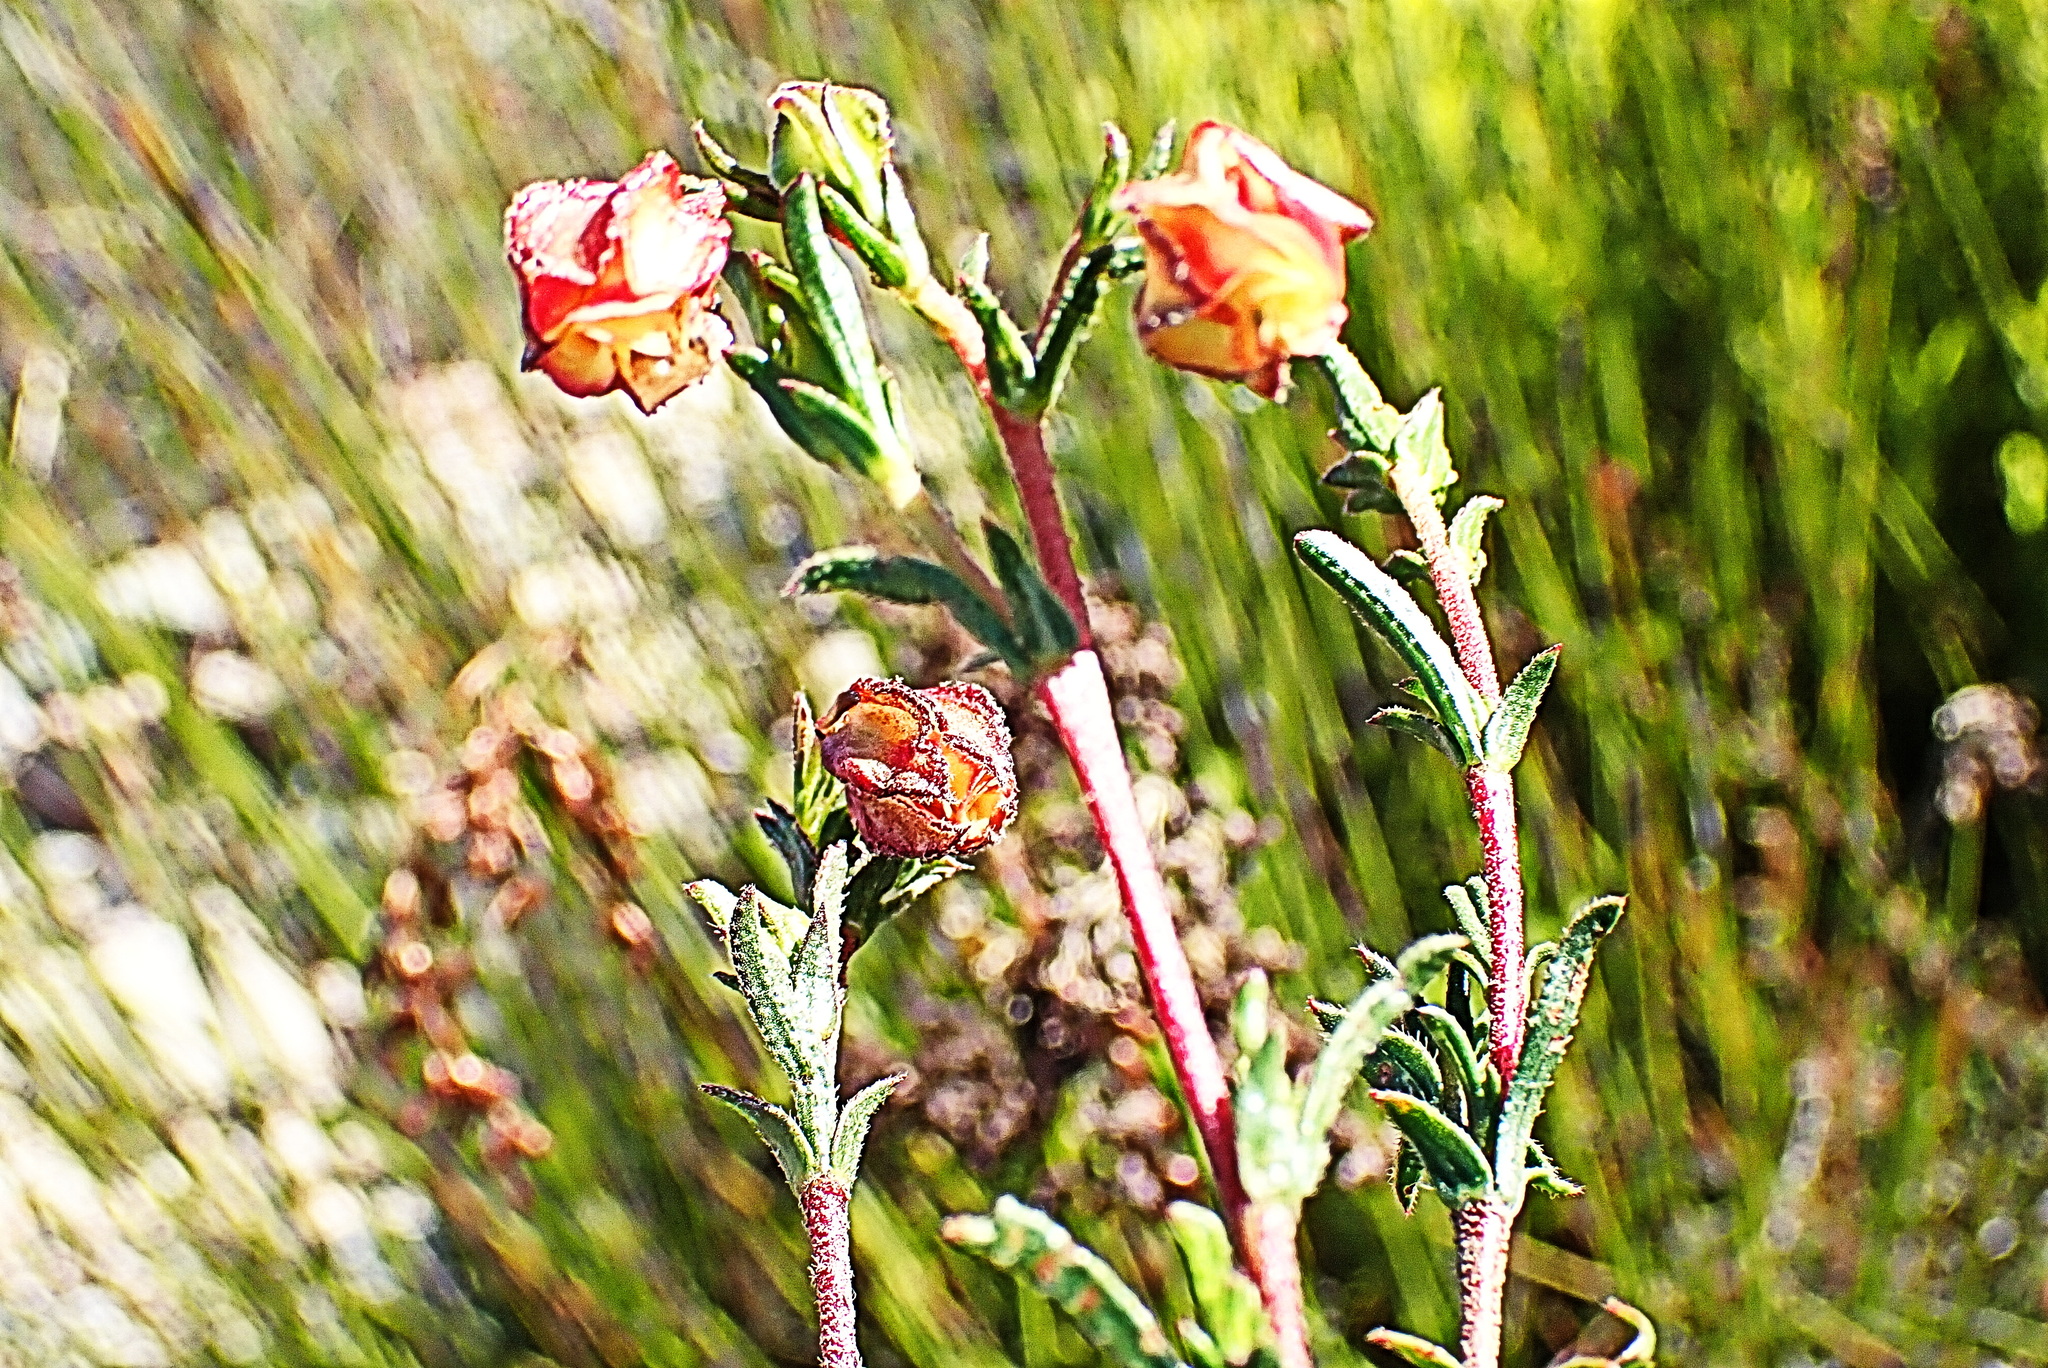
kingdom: Plantae
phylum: Tracheophyta
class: Magnoliopsida
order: Malvales
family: Malvaceae
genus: Hermannia
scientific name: Hermannia angularis
